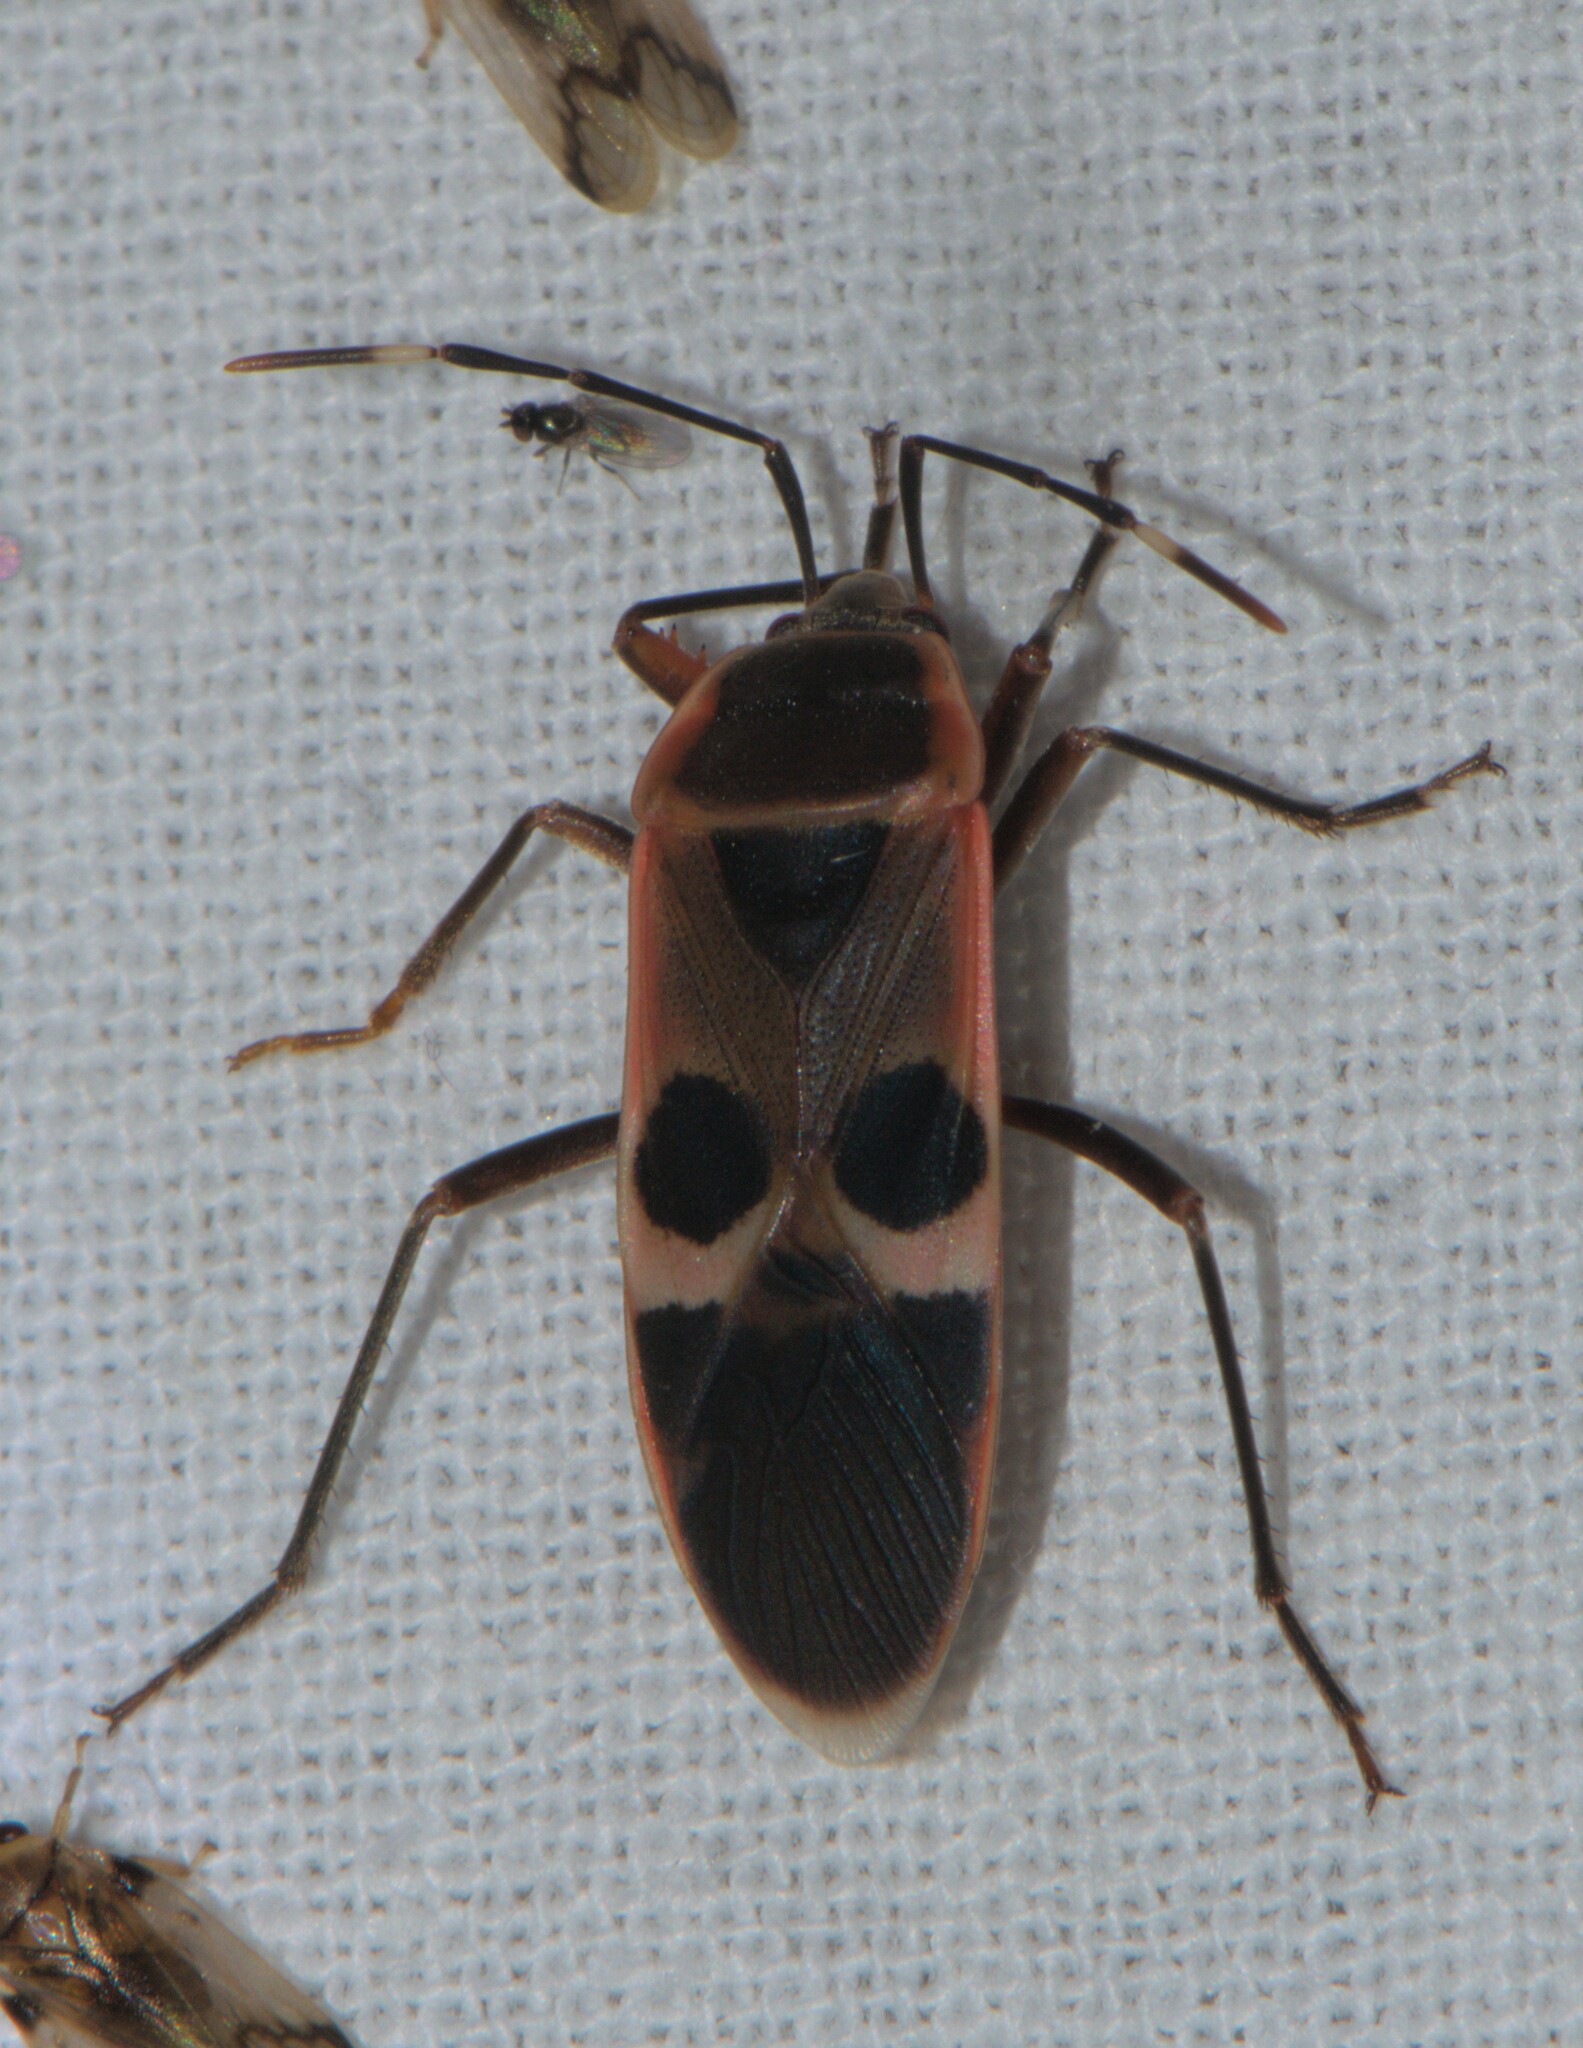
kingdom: Animalia
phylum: Arthropoda
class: Insecta
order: Hemiptera
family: Largidae
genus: Physopelta
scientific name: Physopelta gutta
